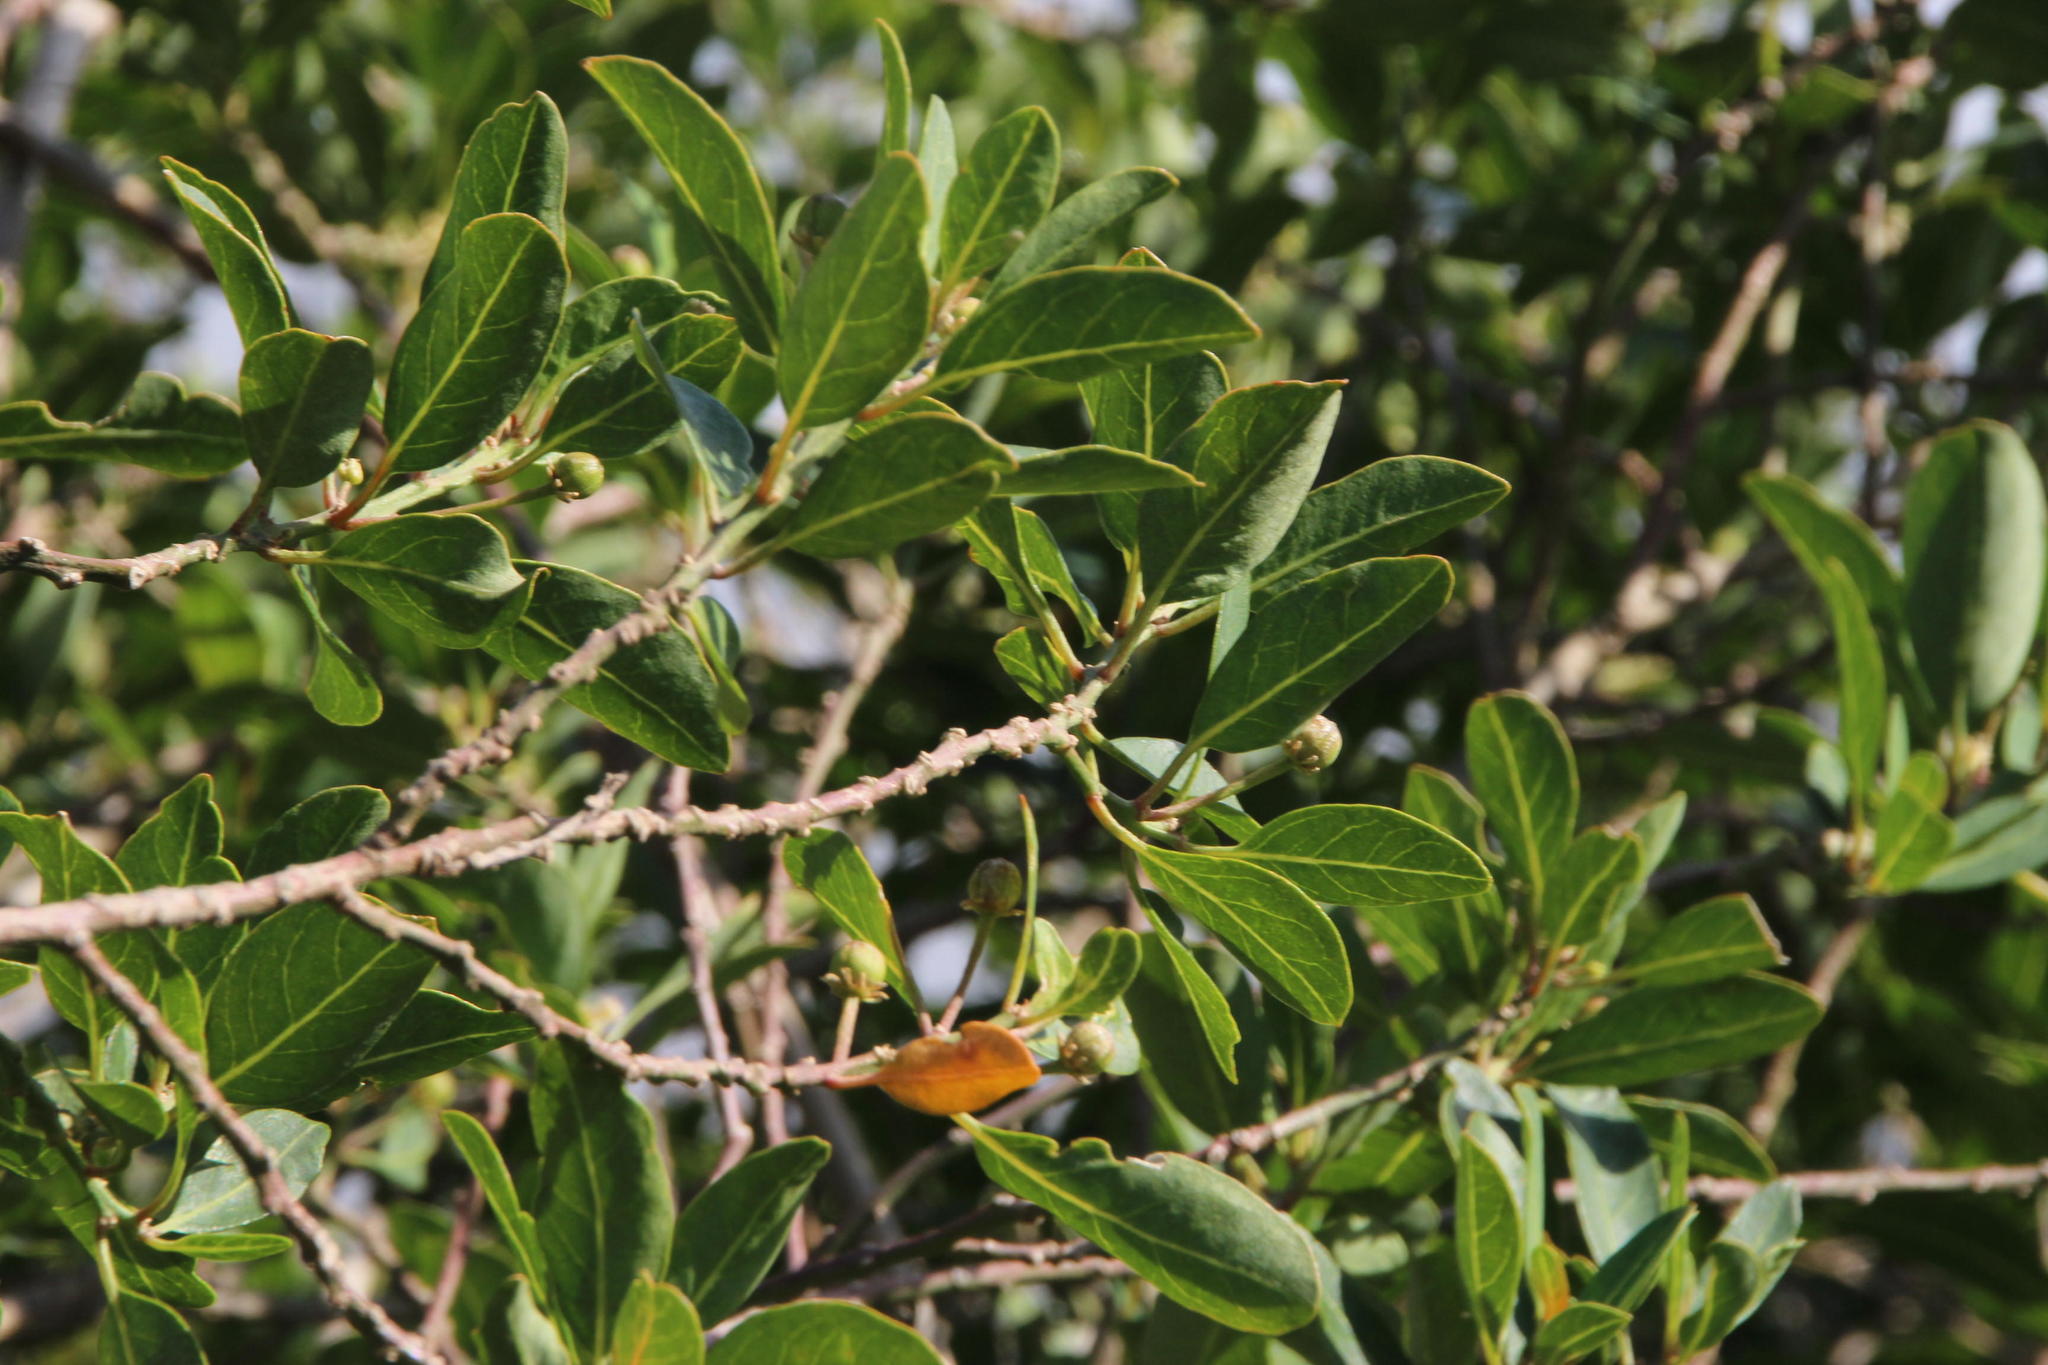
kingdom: Plantae
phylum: Tracheophyta
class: Magnoliopsida
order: Malpighiales
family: Peraceae
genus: Clutia
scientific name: Clutia pulchella
